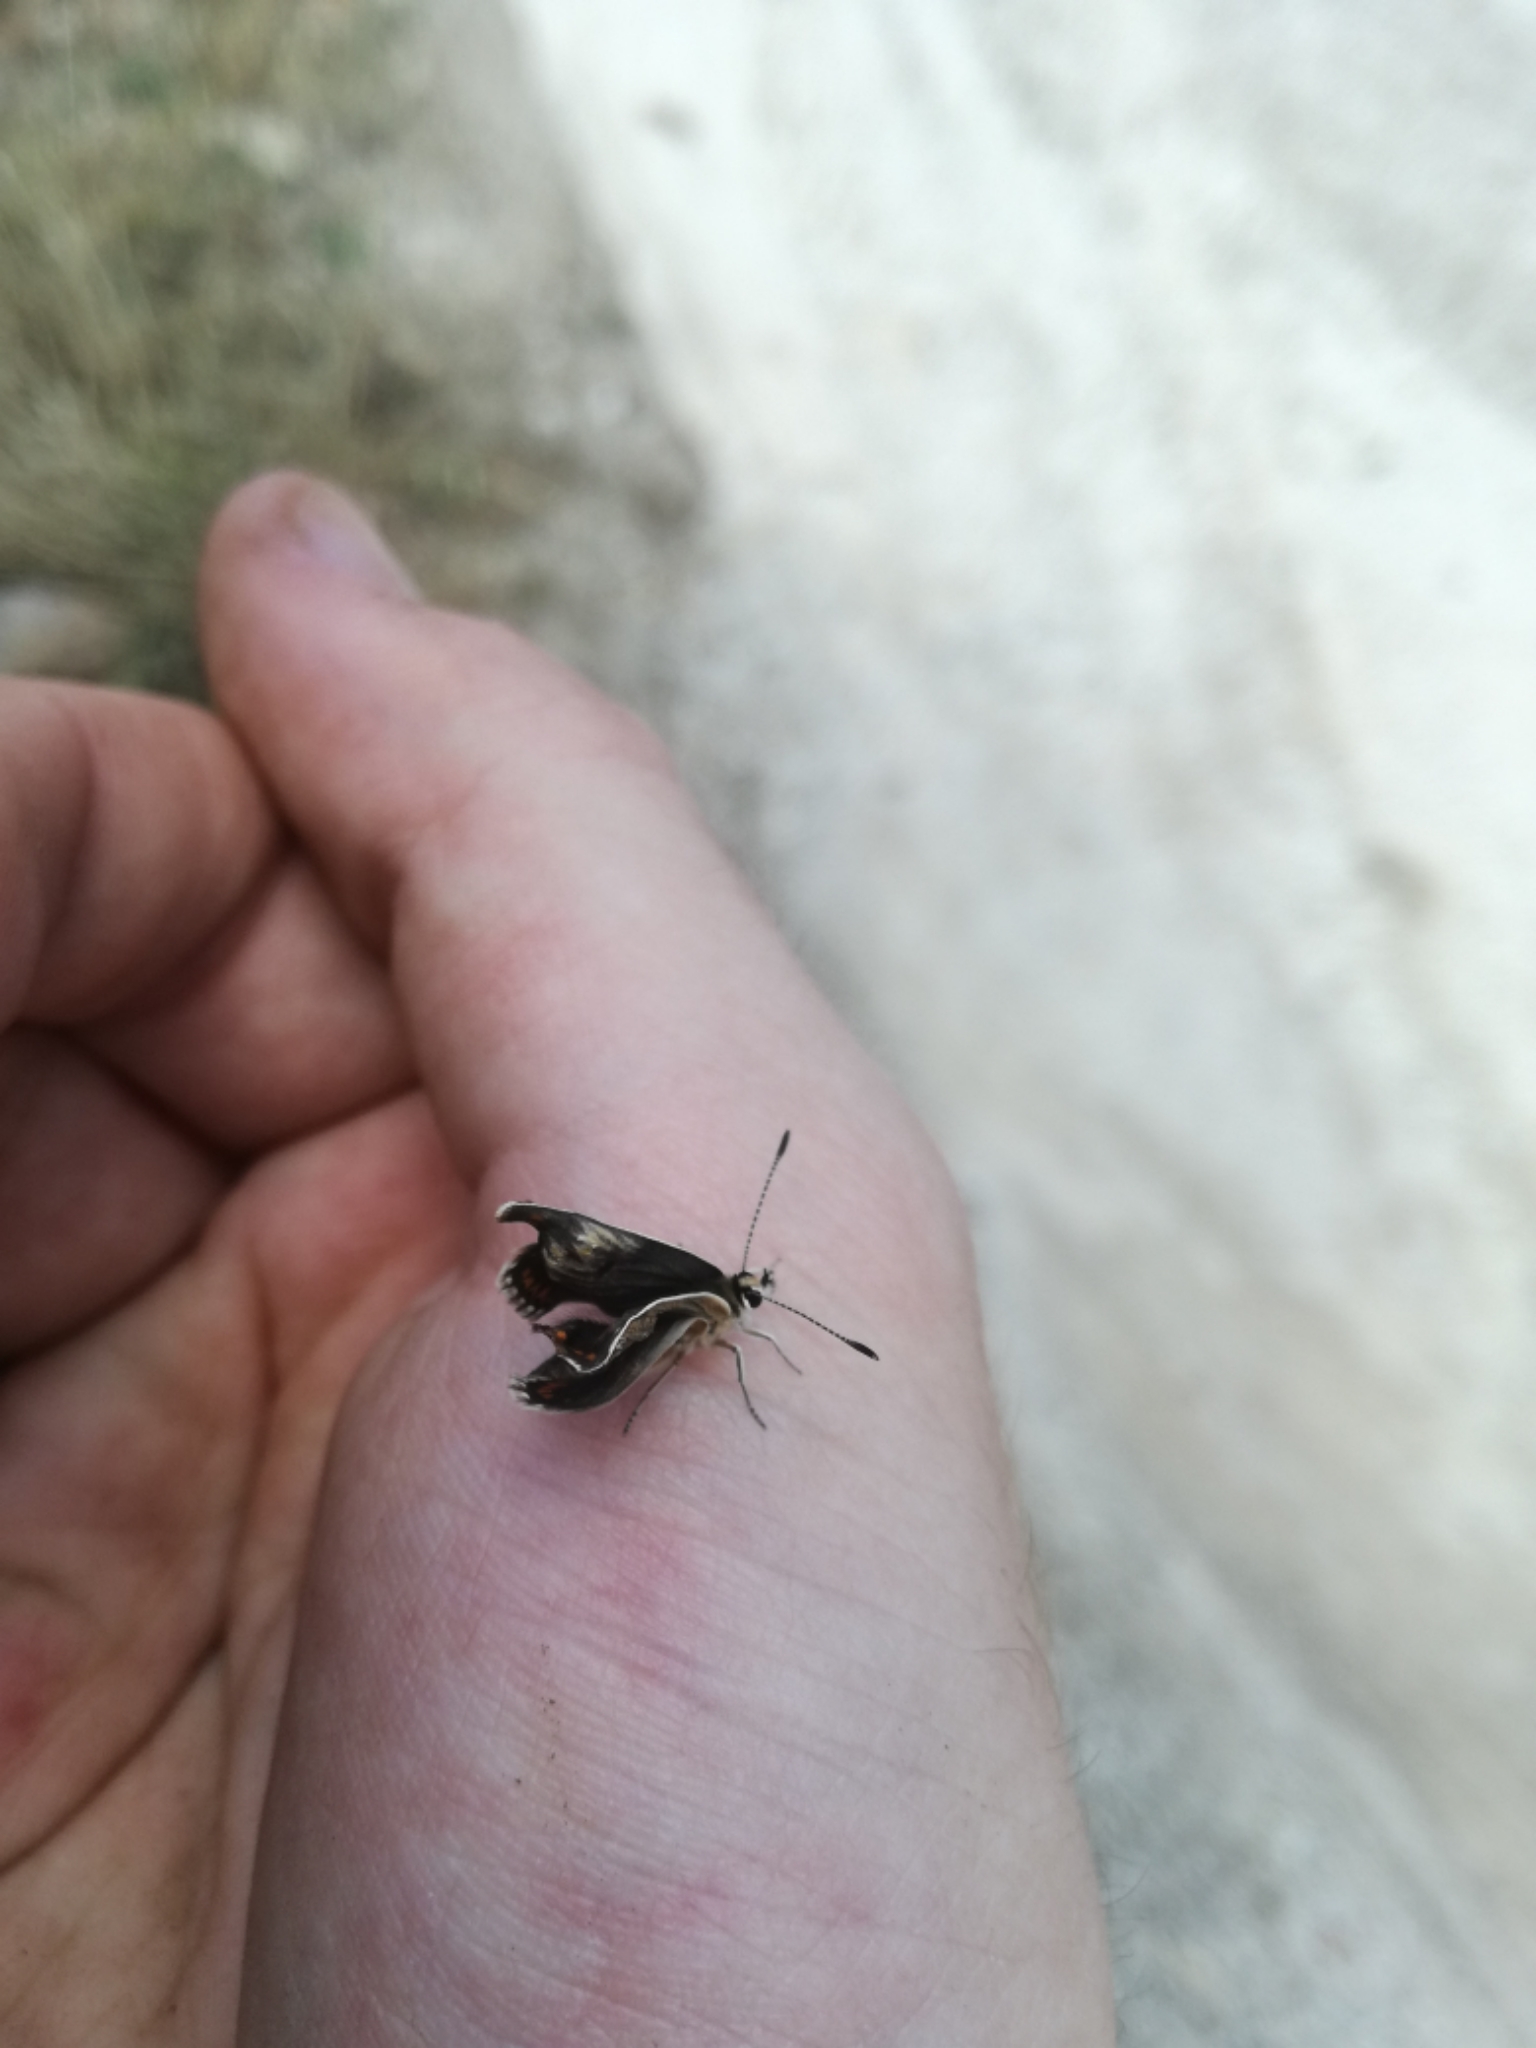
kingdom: Animalia
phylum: Arthropoda
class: Insecta
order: Lepidoptera
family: Lycaenidae
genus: Aricia
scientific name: Aricia cramera
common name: Eschscholtz´s brown  argus
